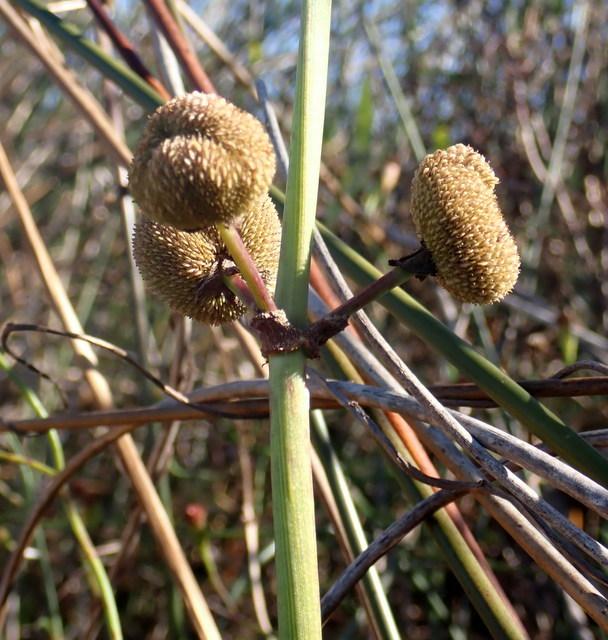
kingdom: Plantae
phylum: Tracheophyta
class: Liliopsida
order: Alismatales
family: Alismataceae
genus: Sagittaria
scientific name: Sagittaria lancifolia
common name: Lance-leaf arrowhead
